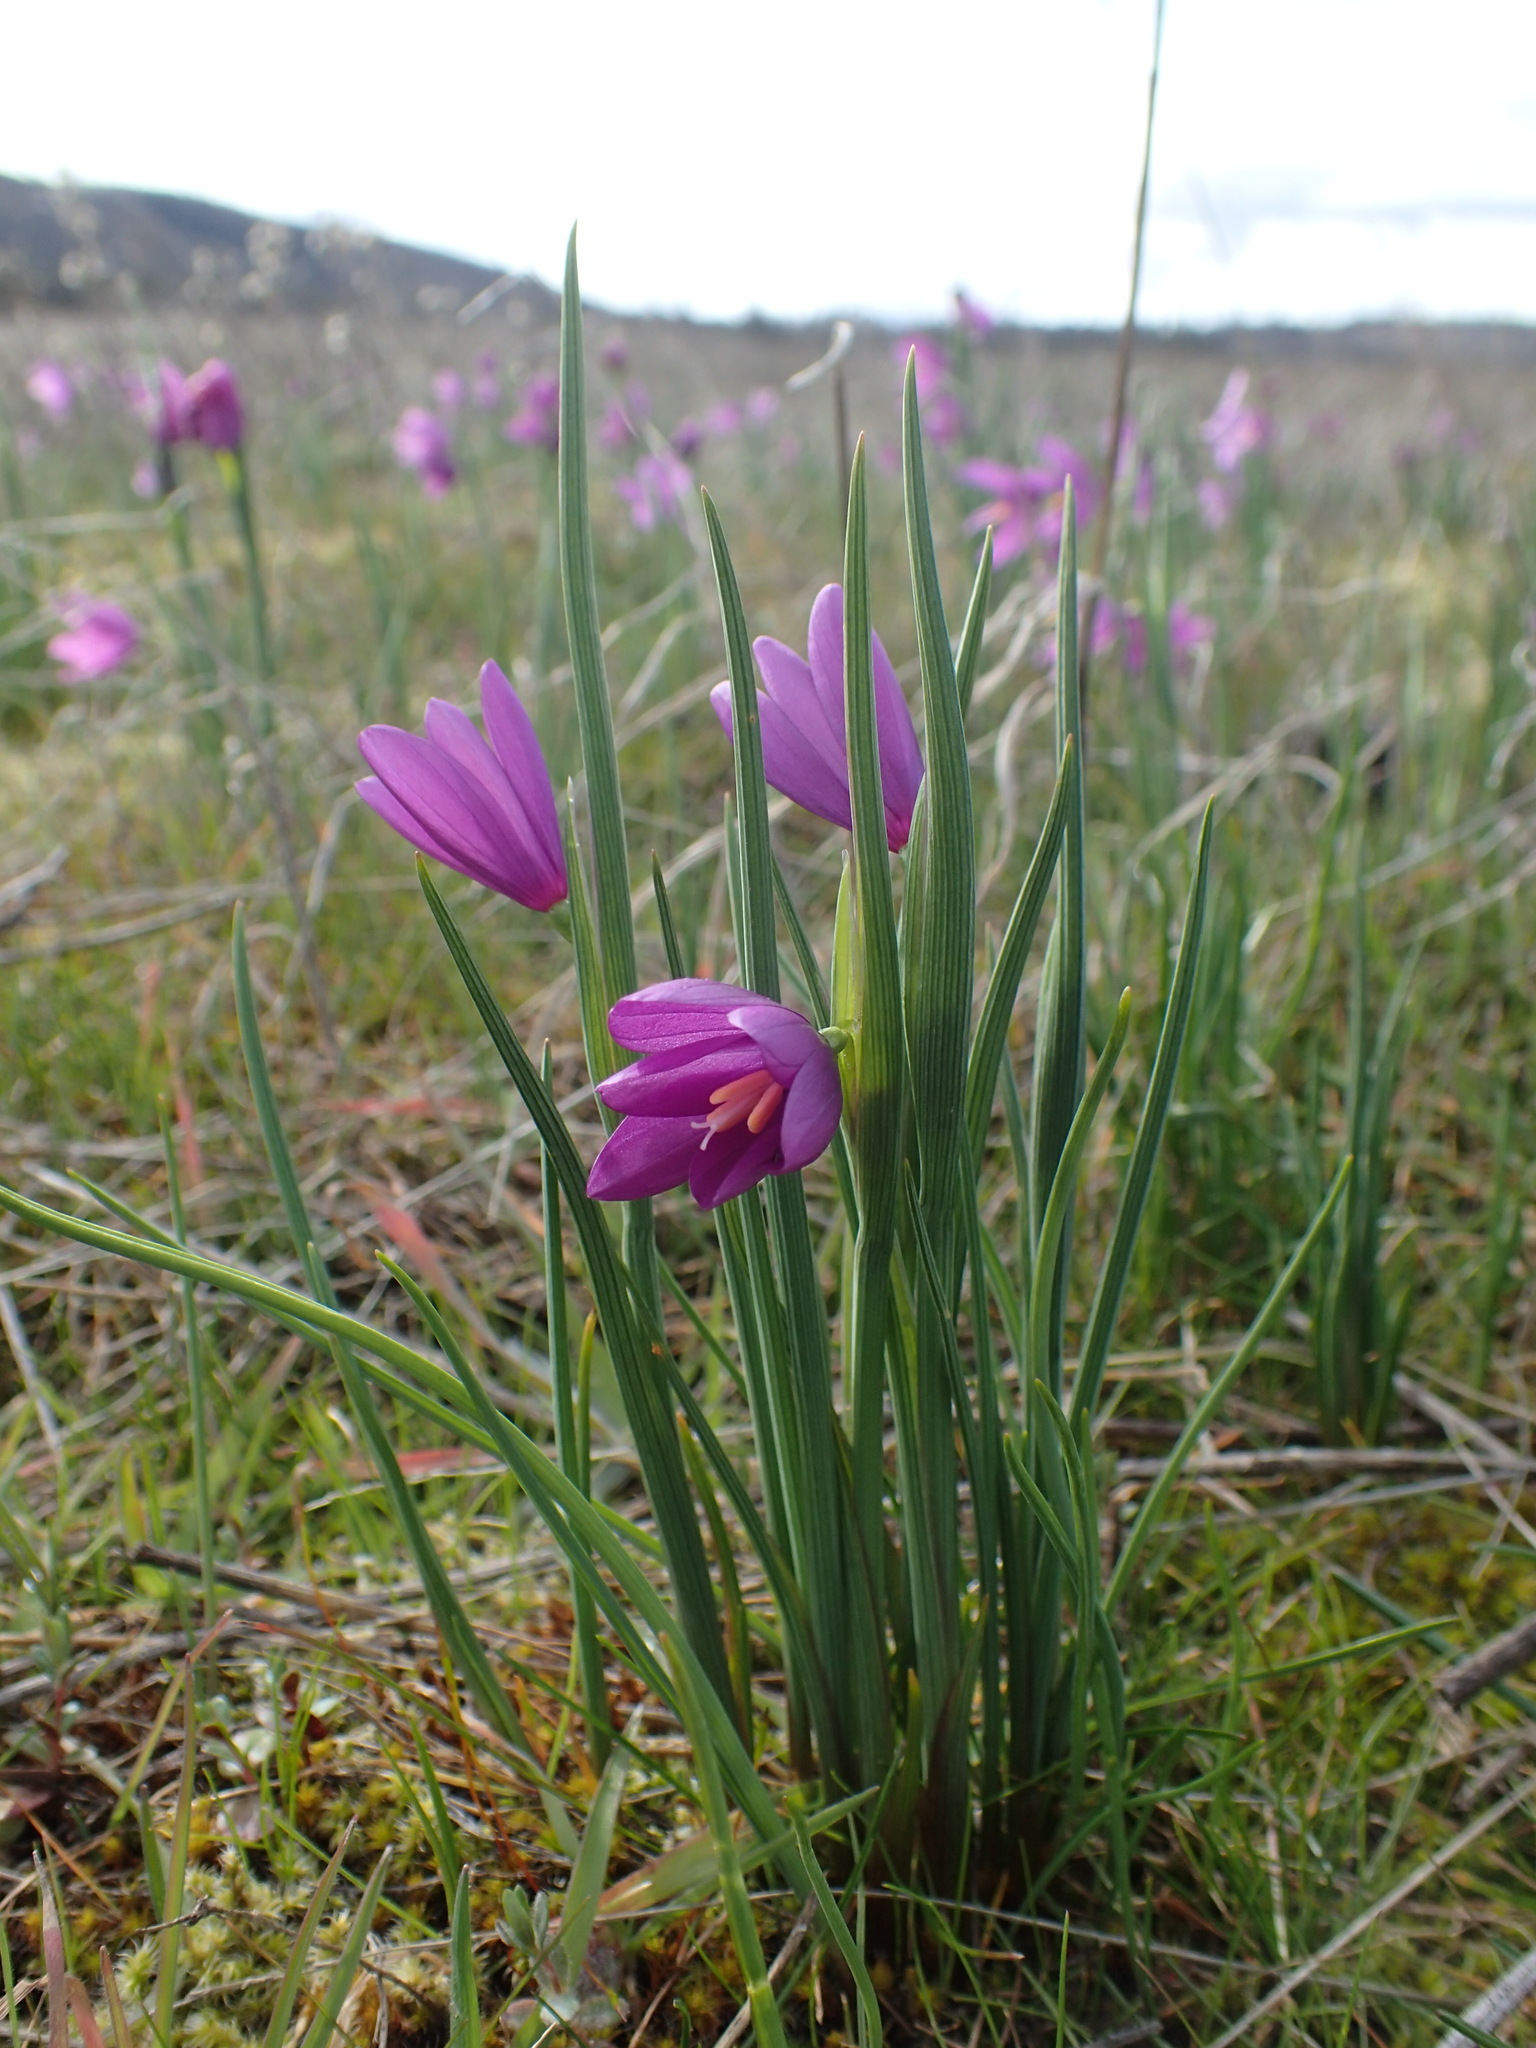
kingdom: Plantae
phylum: Tracheophyta
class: Liliopsida
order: Asparagales
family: Iridaceae
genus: Olsynium
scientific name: Olsynium douglasii
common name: Douglas' grasswidow
